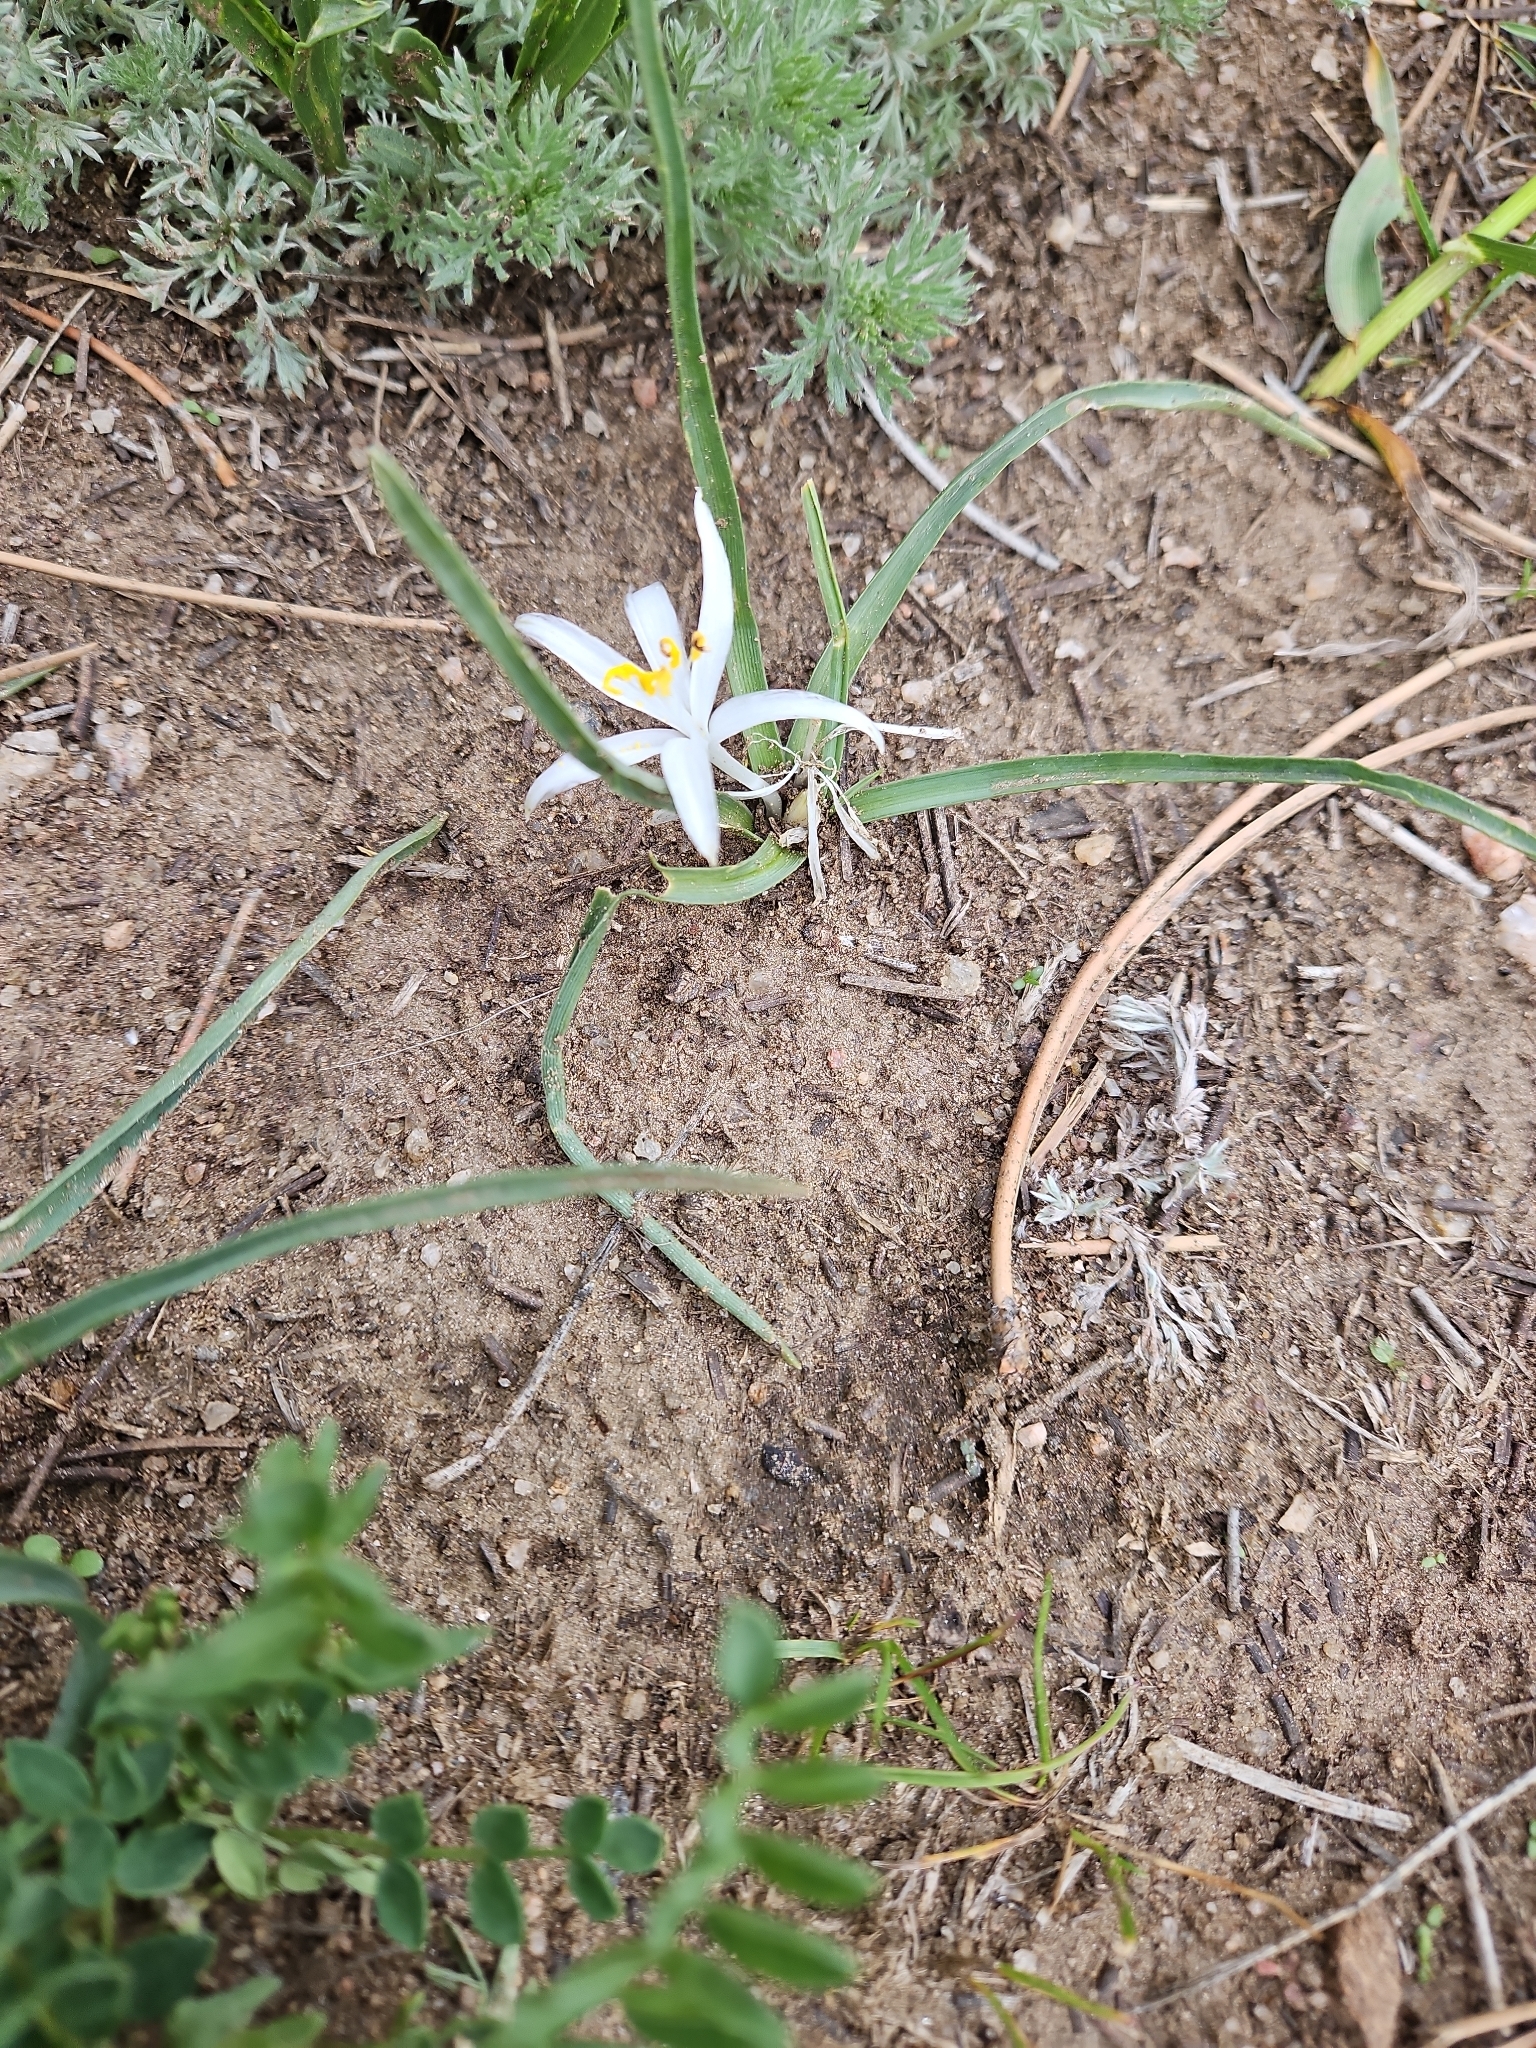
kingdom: Plantae
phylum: Tracheophyta
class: Liliopsida
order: Asparagales
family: Asparagaceae
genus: Leucocrinum
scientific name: Leucocrinum montanum
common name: Mountain-lily
